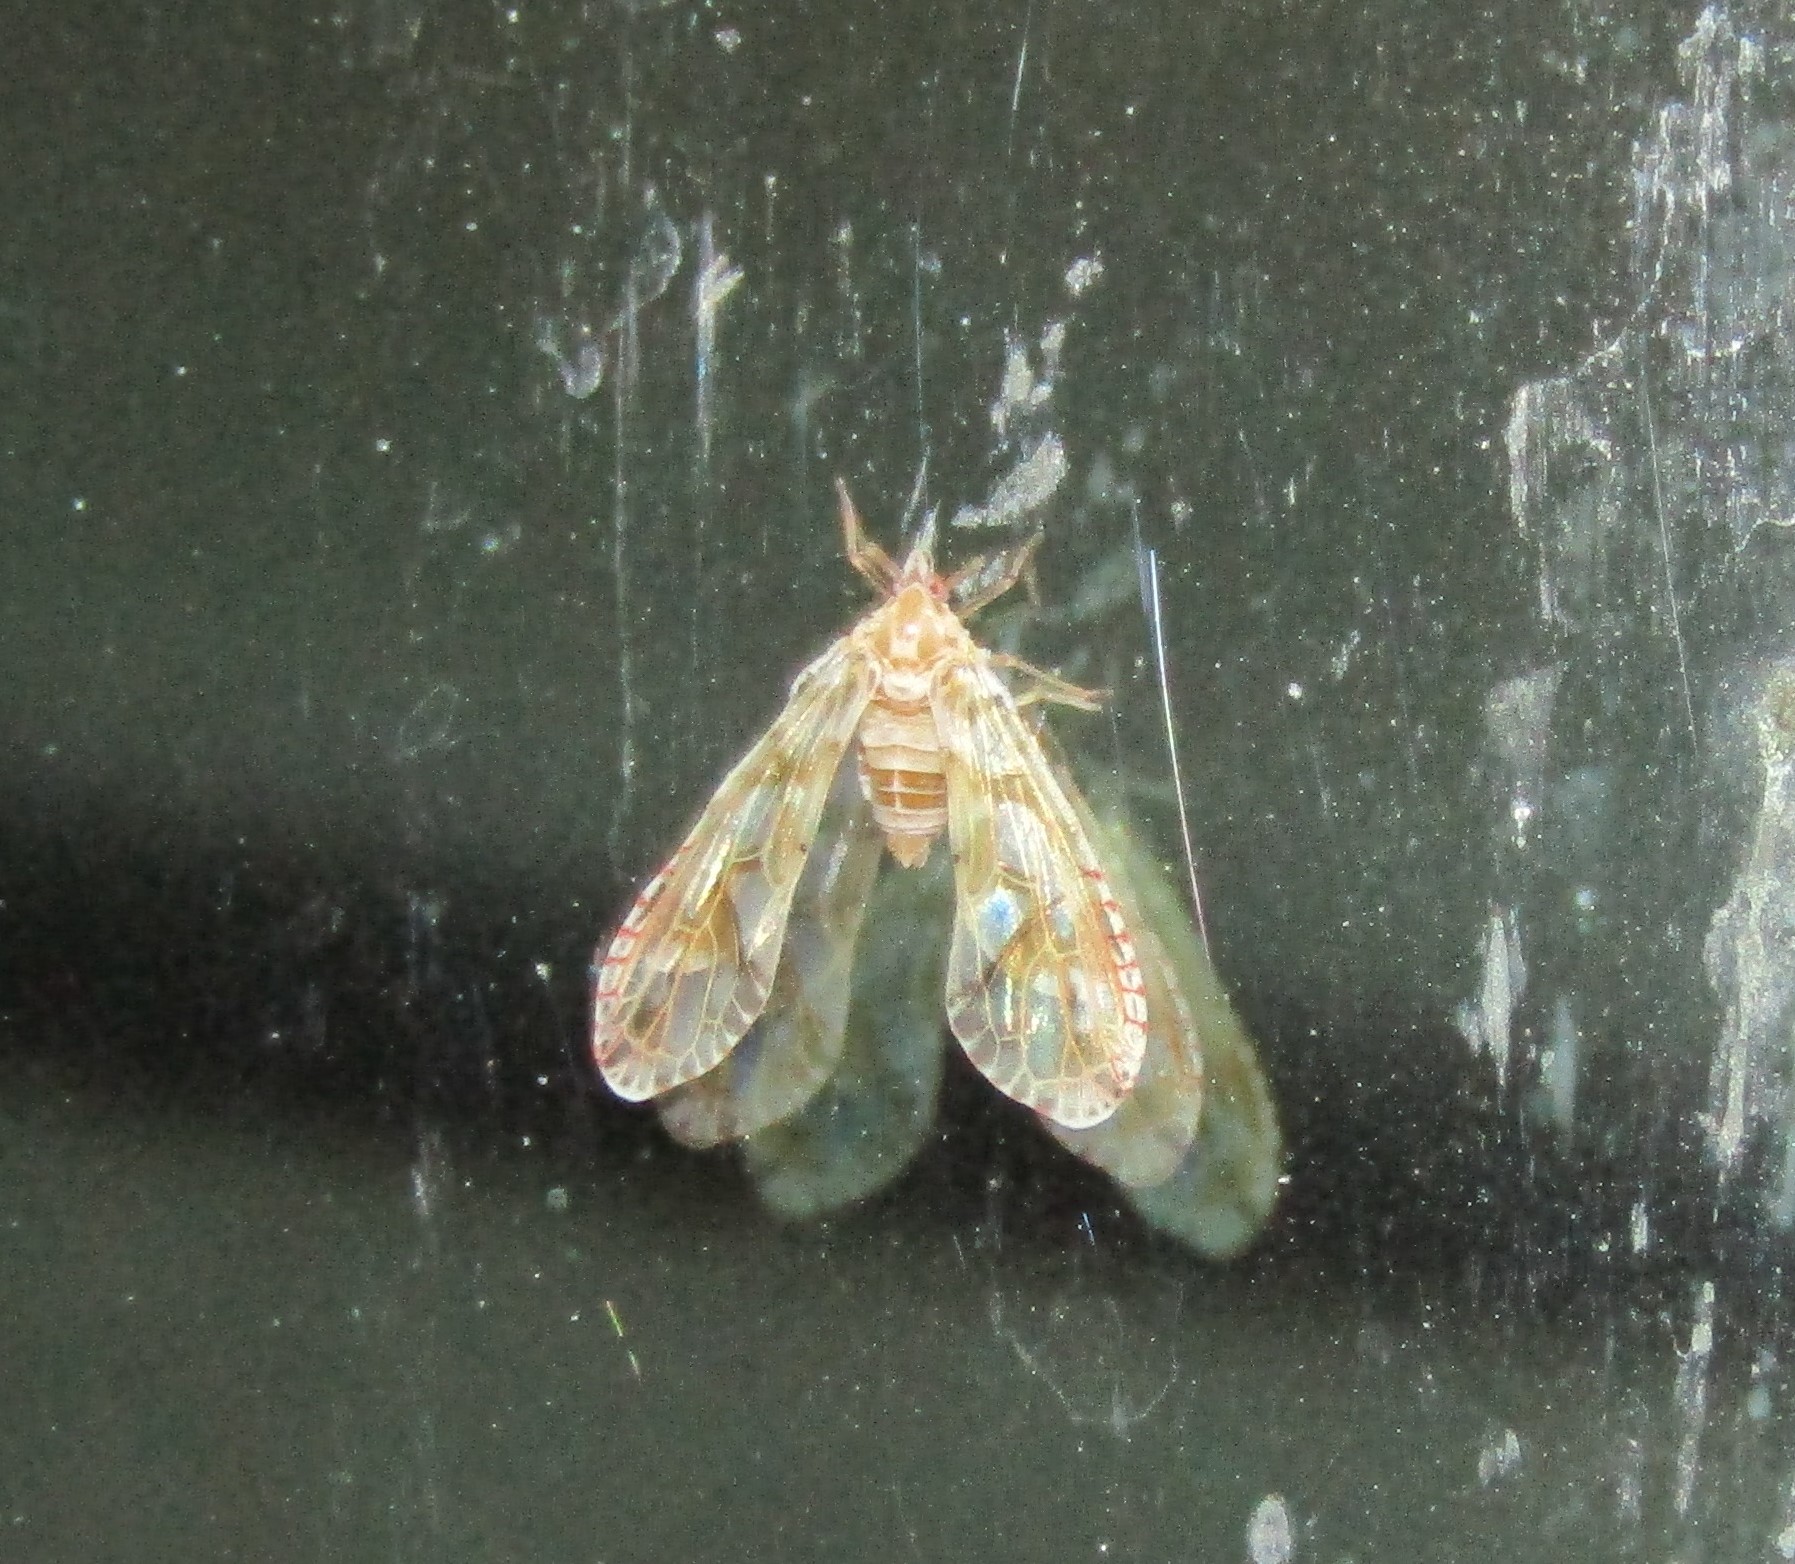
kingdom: Animalia
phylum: Arthropoda
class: Insecta
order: Hemiptera
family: Derbidae
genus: Anotia
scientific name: Anotia kirkaldyi
